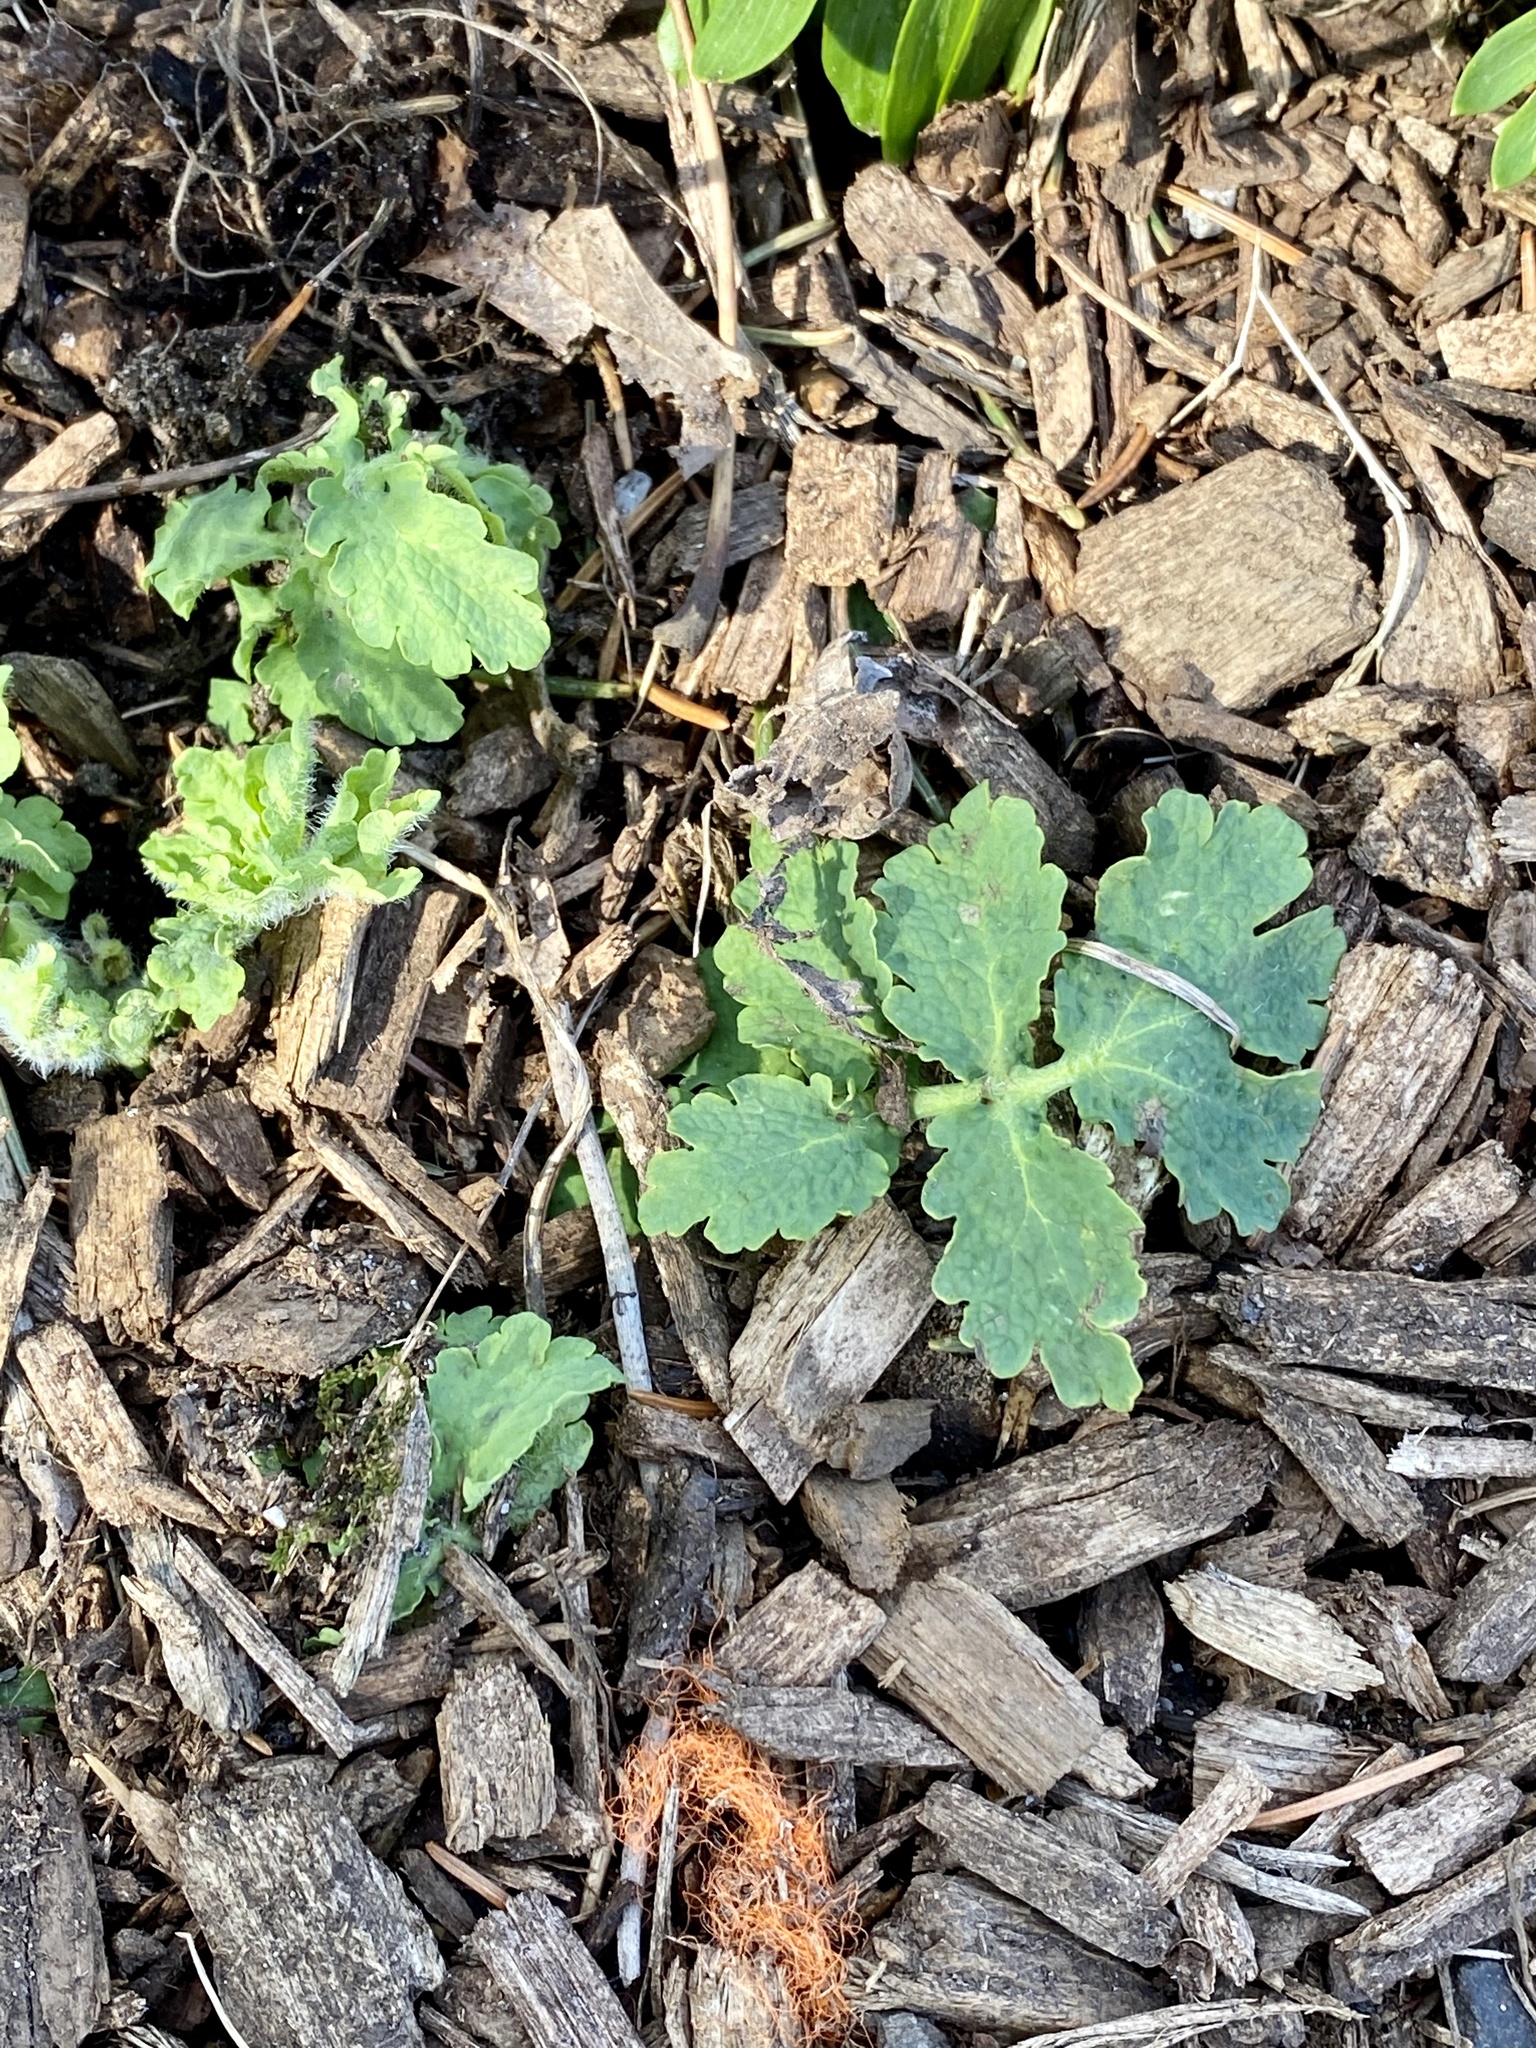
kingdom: Plantae
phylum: Tracheophyta
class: Magnoliopsida
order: Ranunculales
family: Papaveraceae
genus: Chelidonium
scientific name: Chelidonium majus
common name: Greater celandine
